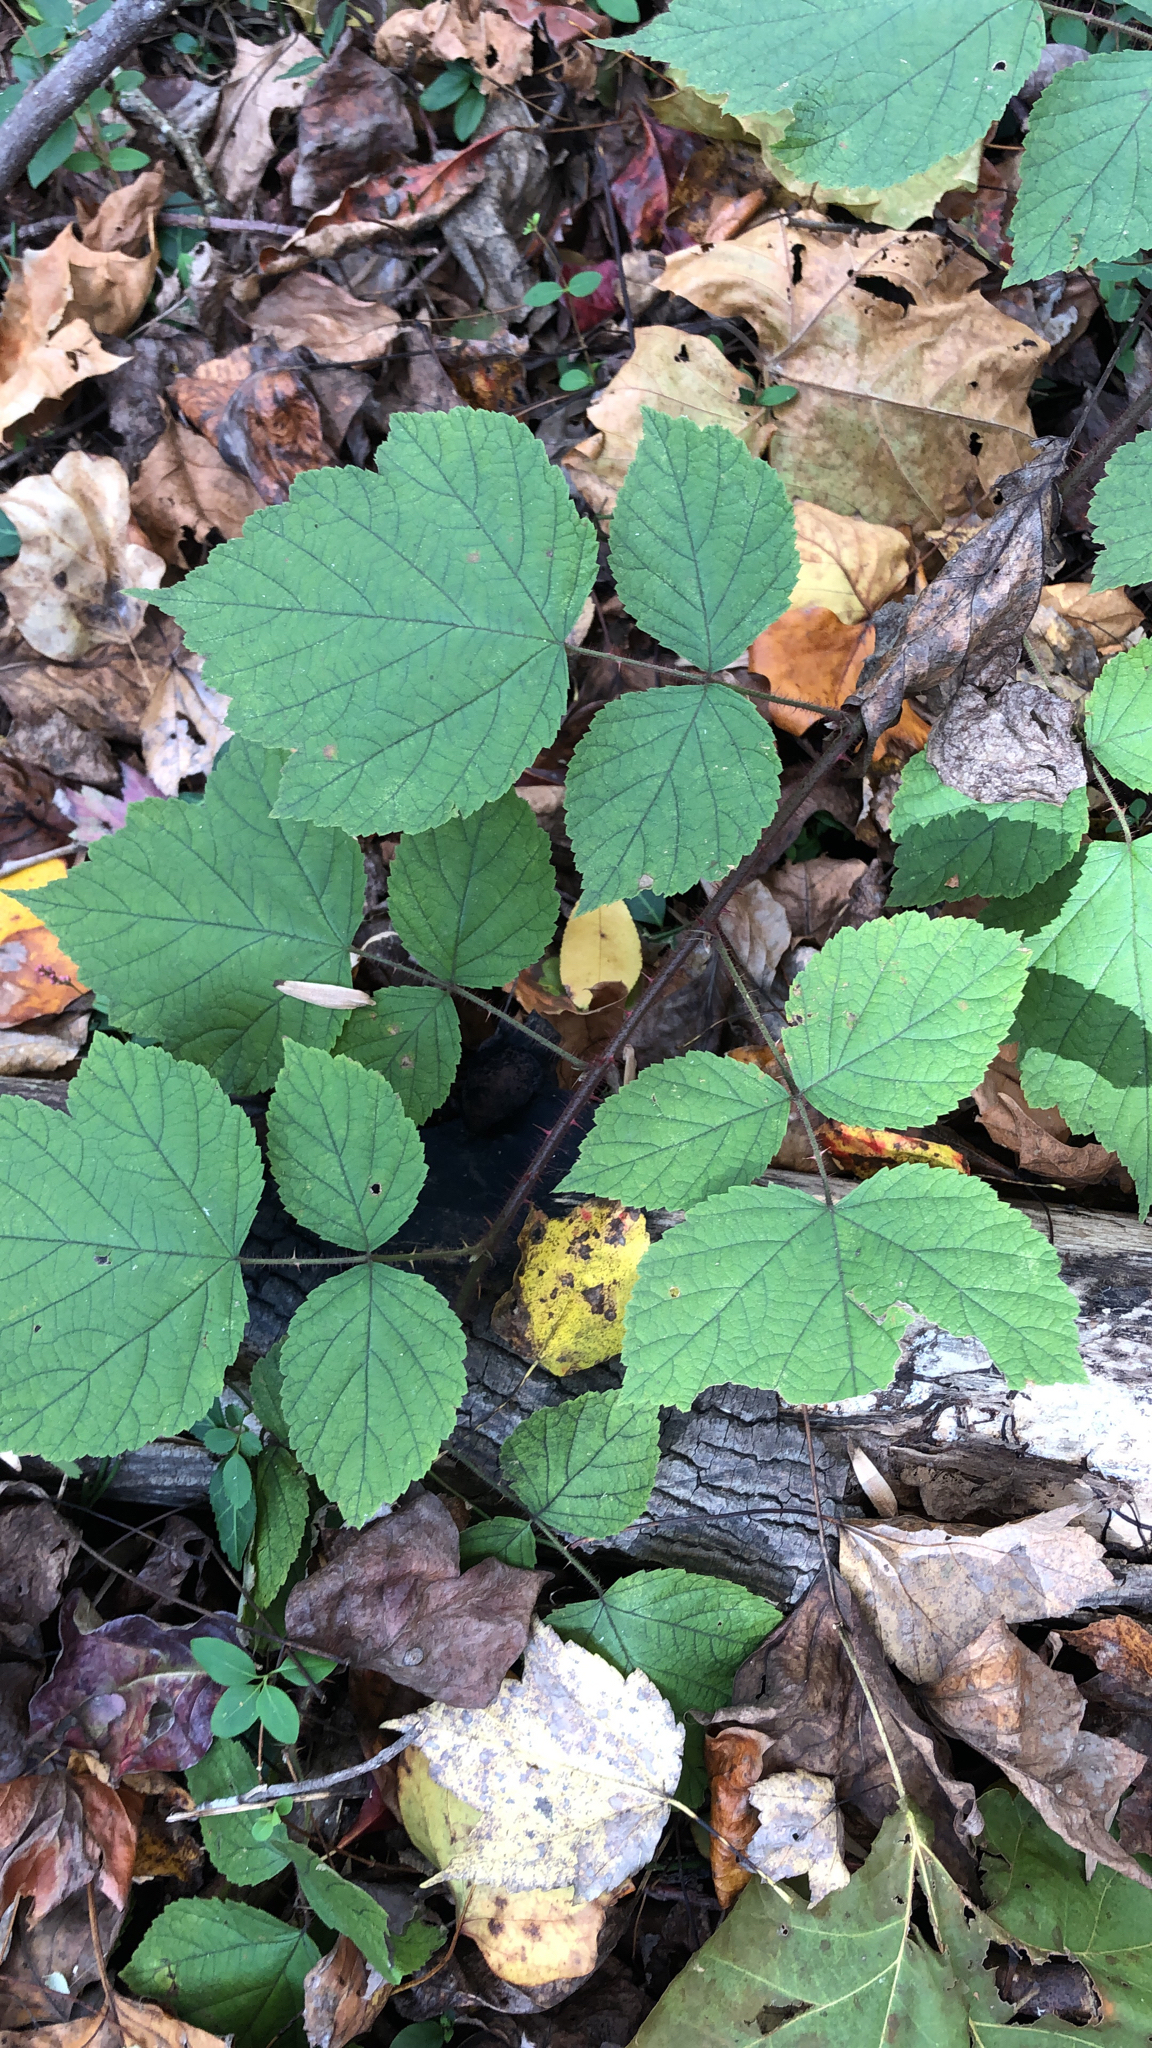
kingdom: Plantae
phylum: Tracheophyta
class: Magnoliopsida
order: Rosales
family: Rosaceae
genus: Rubus
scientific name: Rubus phoenicolasius
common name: Japanese wineberry
